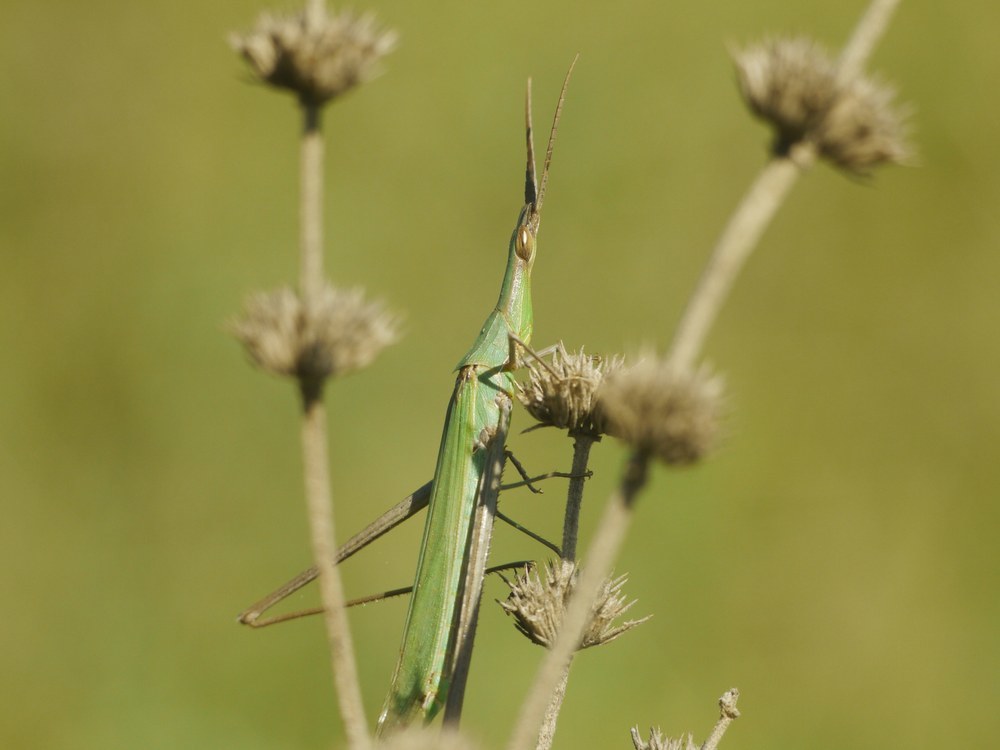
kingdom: Animalia
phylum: Arthropoda
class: Insecta
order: Orthoptera
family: Acrididae
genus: Acrida
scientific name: Acrida ungarica
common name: Common cone-headed grasshopper
